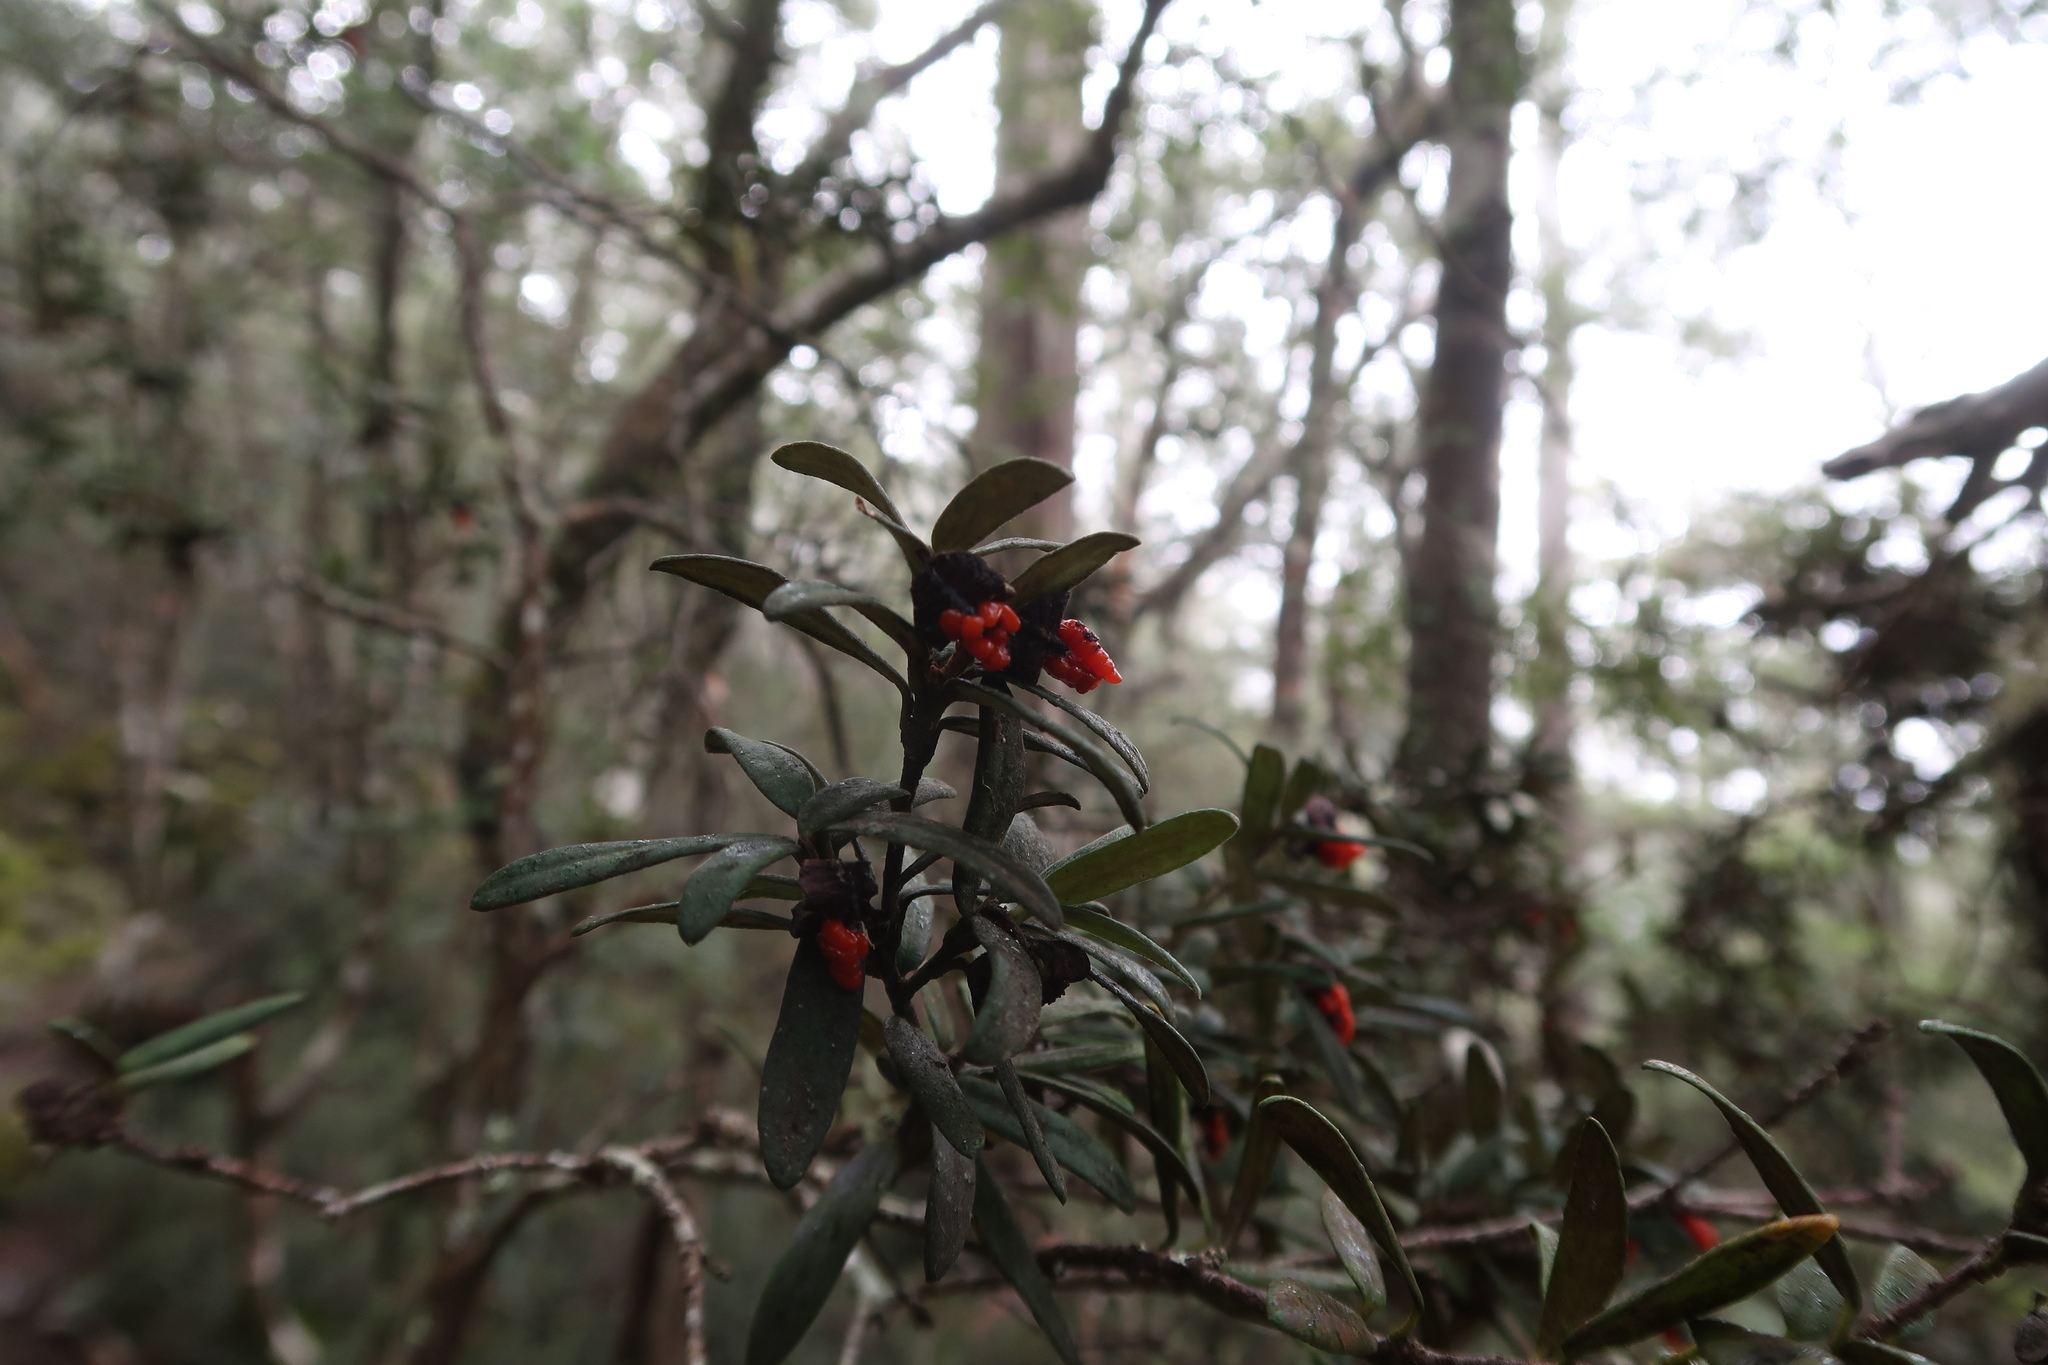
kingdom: Plantae
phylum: Tracheophyta
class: Magnoliopsida
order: Apiales
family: Pittosporaceae
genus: Pittosporum
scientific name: Pittosporum bicolor
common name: Tallowwood
